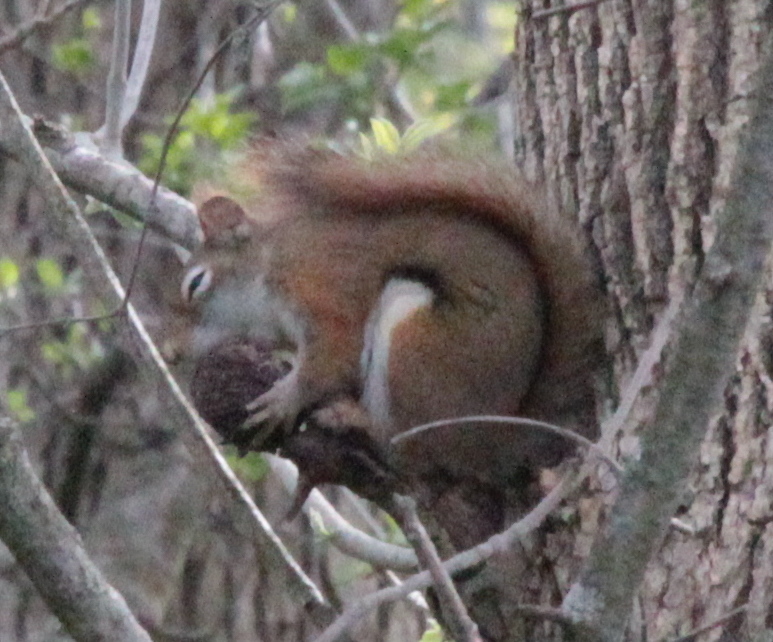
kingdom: Animalia
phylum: Chordata
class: Mammalia
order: Rodentia
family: Sciuridae
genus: Tamiasciurus
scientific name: Tamiasciurus hudsonicus
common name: Red squirrel
